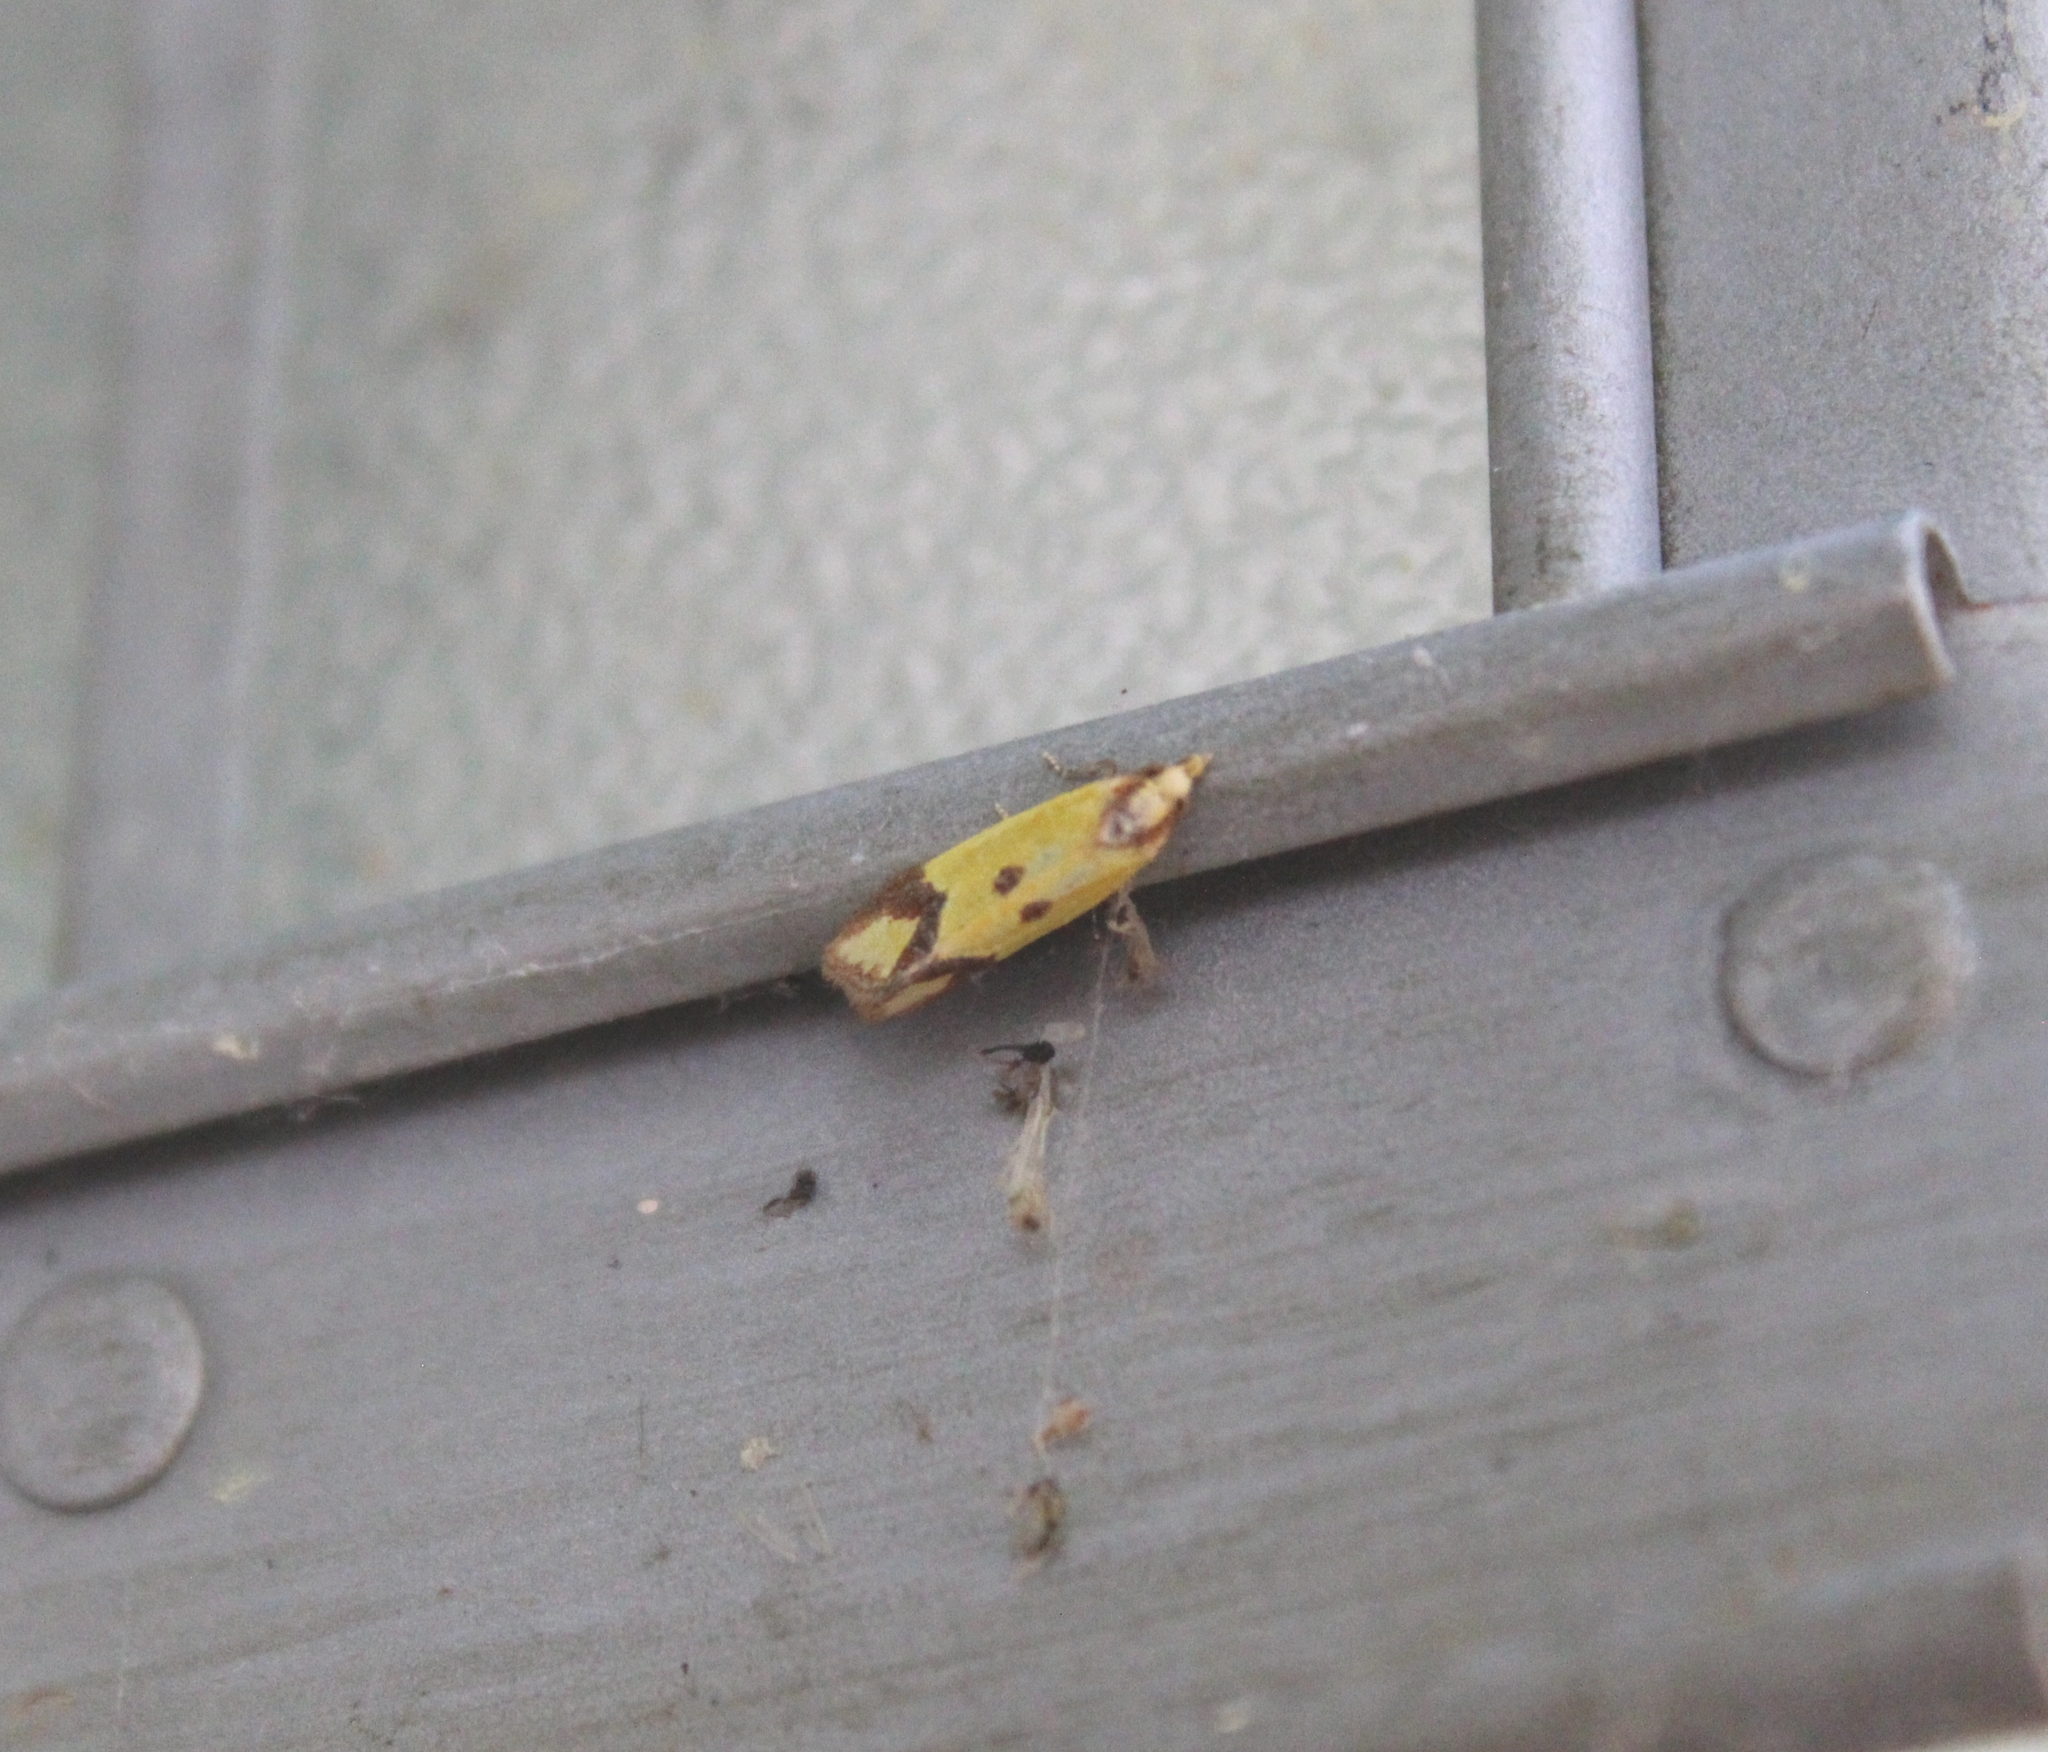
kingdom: Animalia
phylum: Arthropoda
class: Insecta
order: Lepidoptera
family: Tortricidae
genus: Agapeta
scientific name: Agapeta zoegana
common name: Sulfur knapweed root moth
